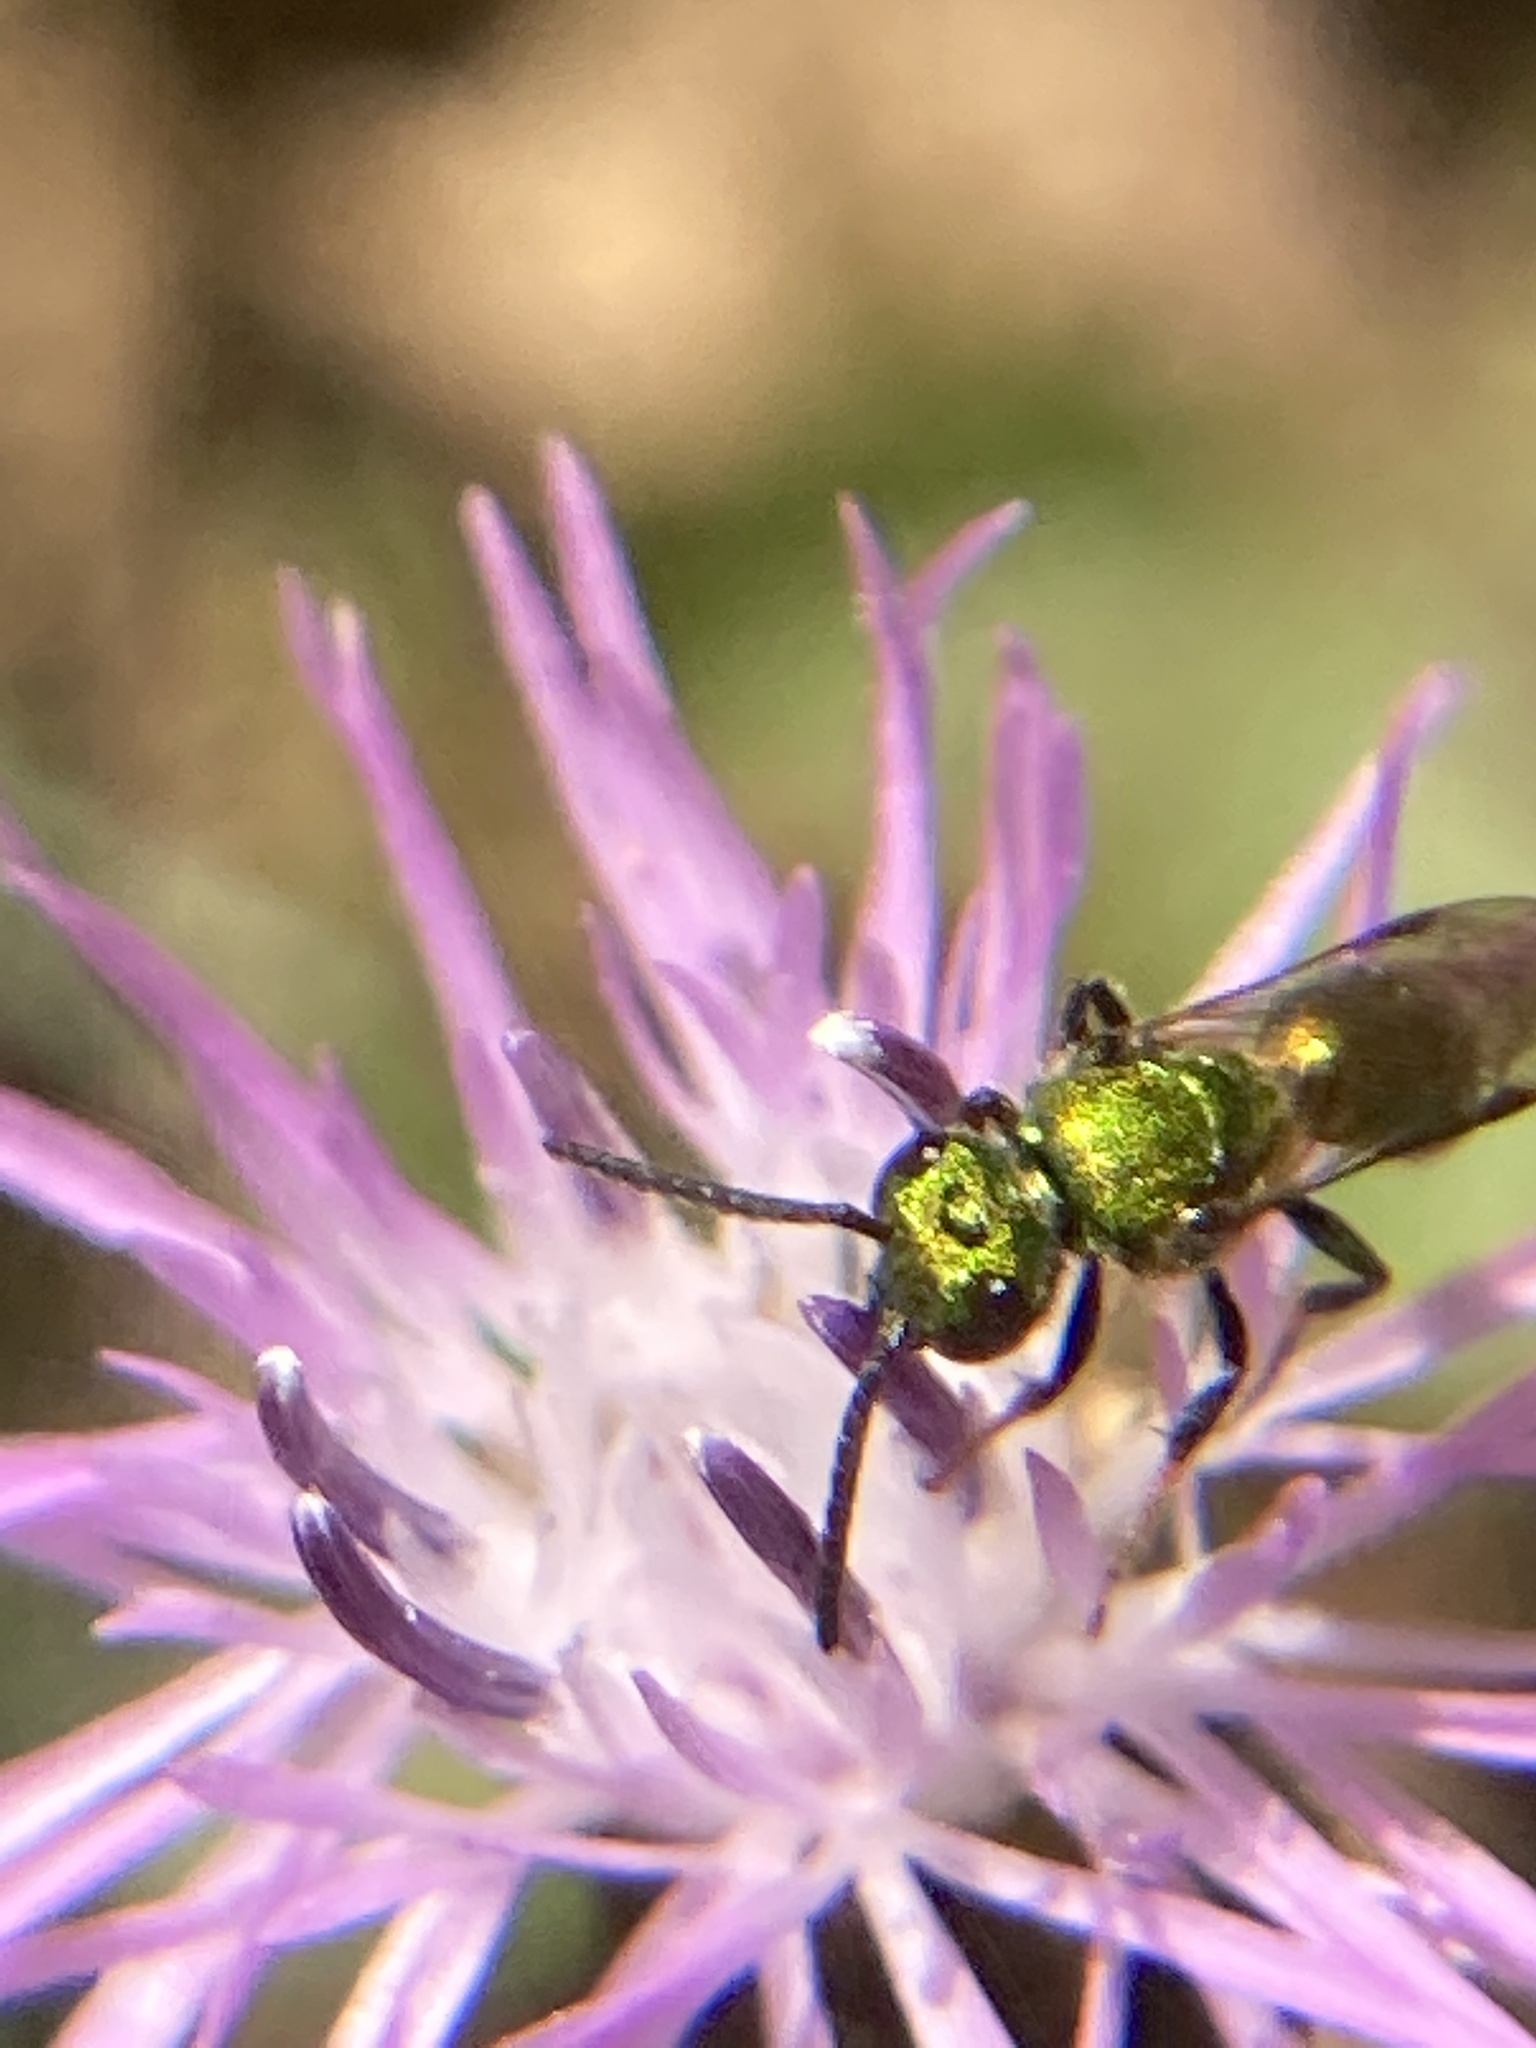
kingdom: Animalia
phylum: Arthropoda
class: Insecta
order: Hymenoptera
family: Halictidae
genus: Augochlora
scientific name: Augochlora pura
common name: Pure green sweat bee
